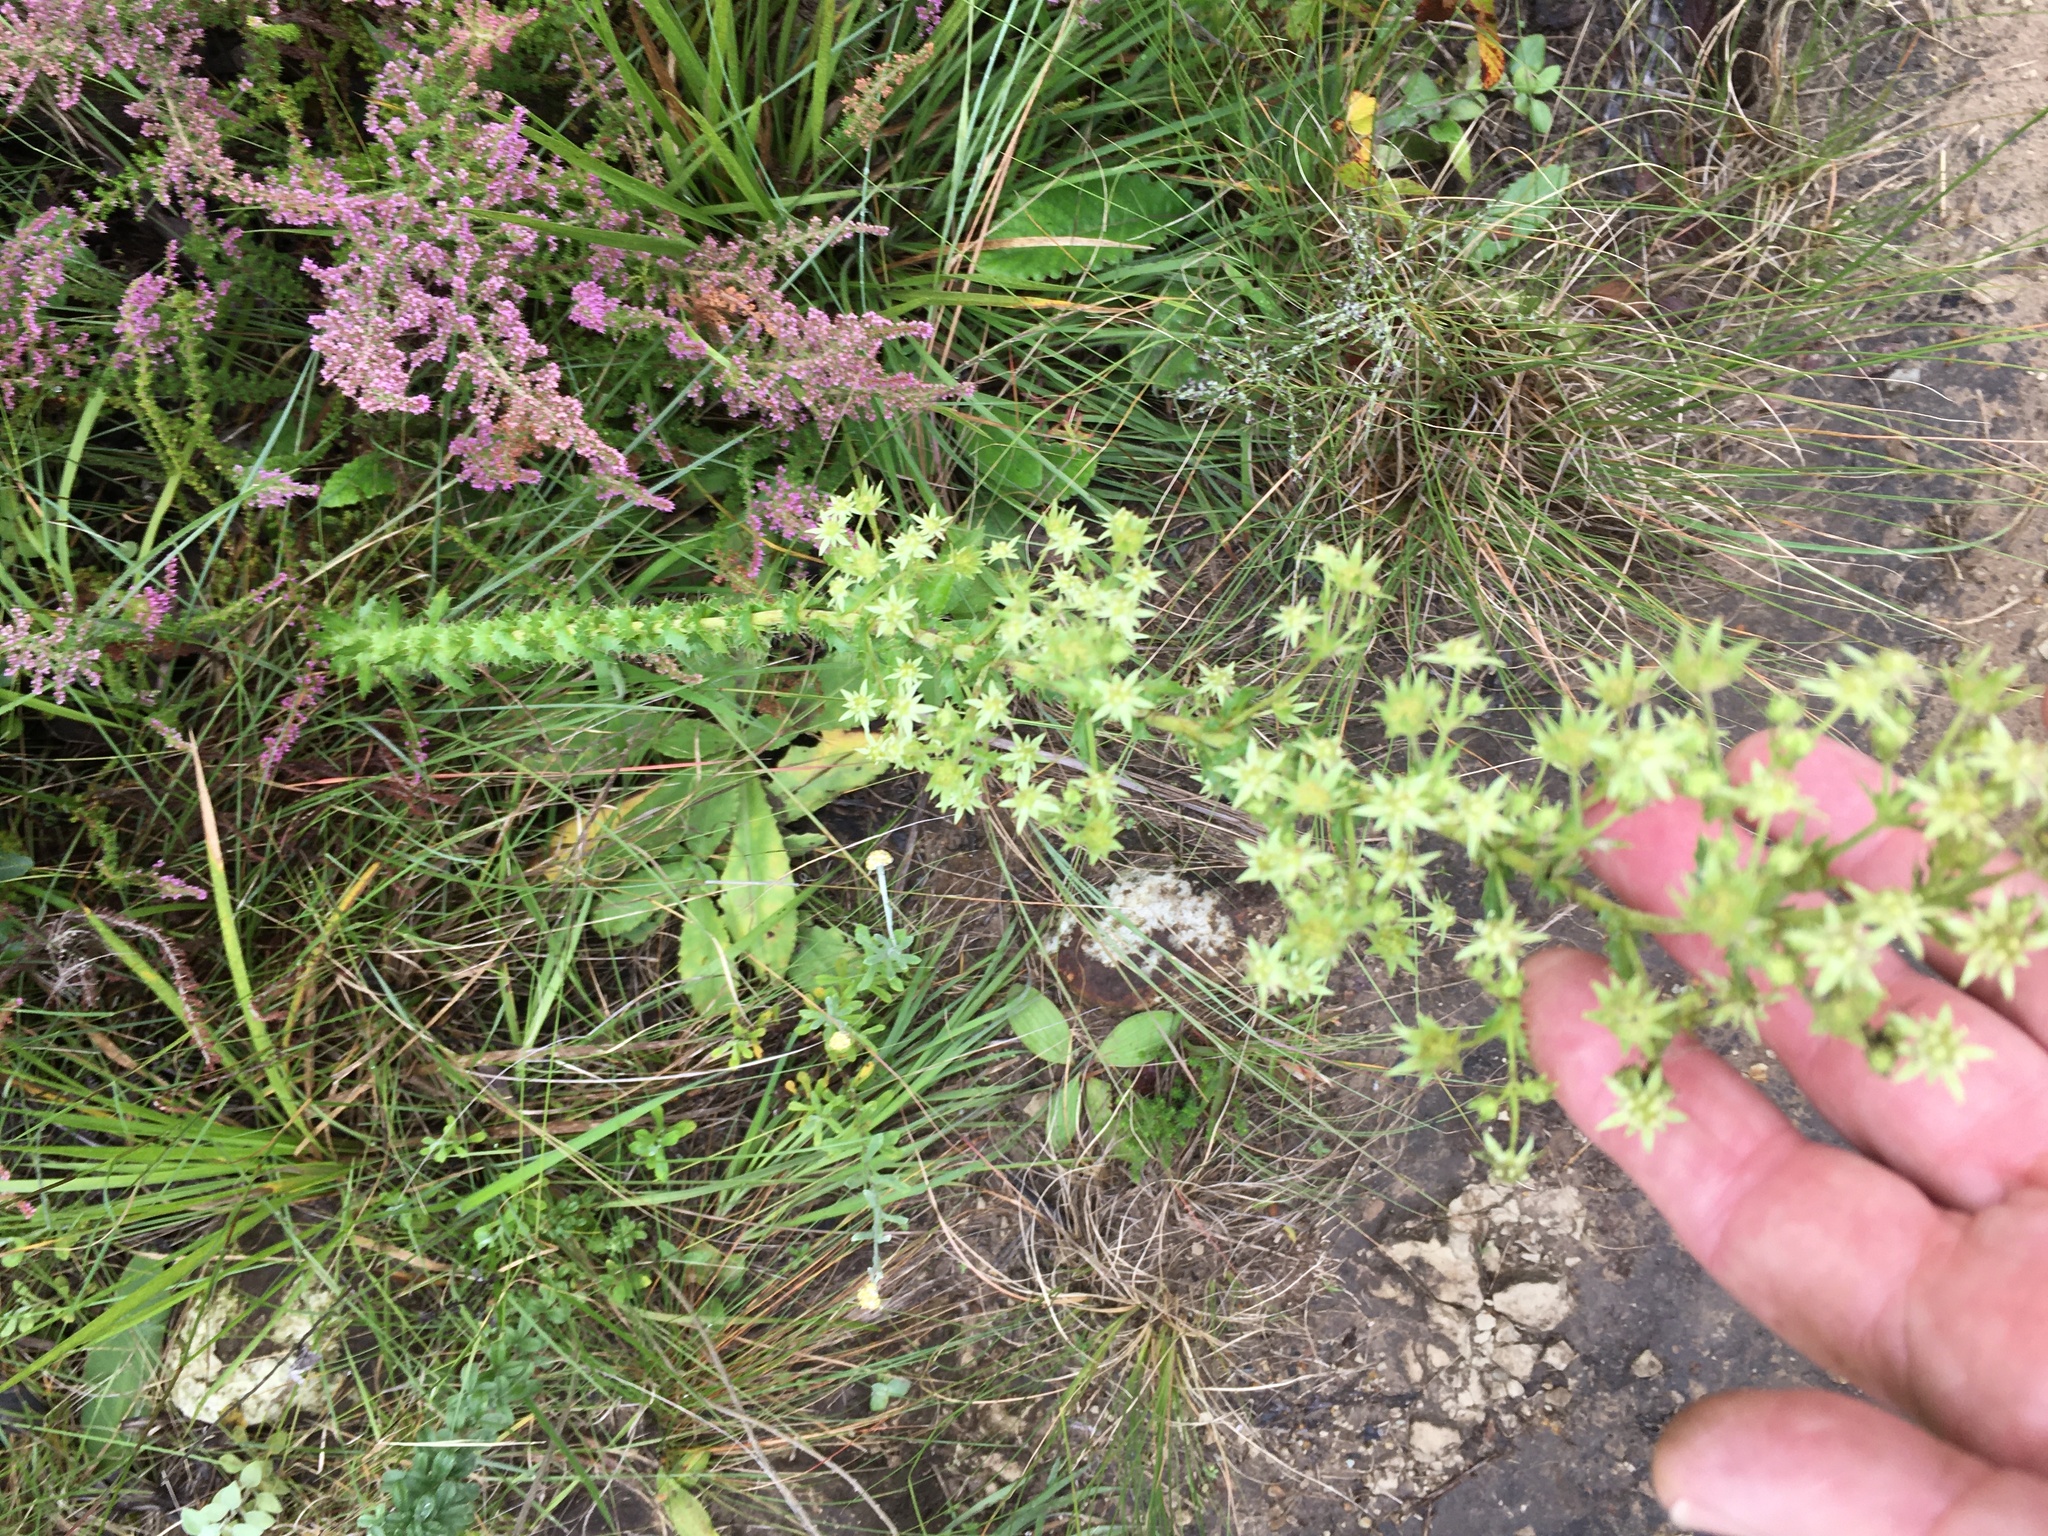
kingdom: Plantae
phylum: Tracheophyta
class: Magnoliopsida
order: Apiales
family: Apiaceae
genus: Alepidea
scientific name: Alepidea setifera
